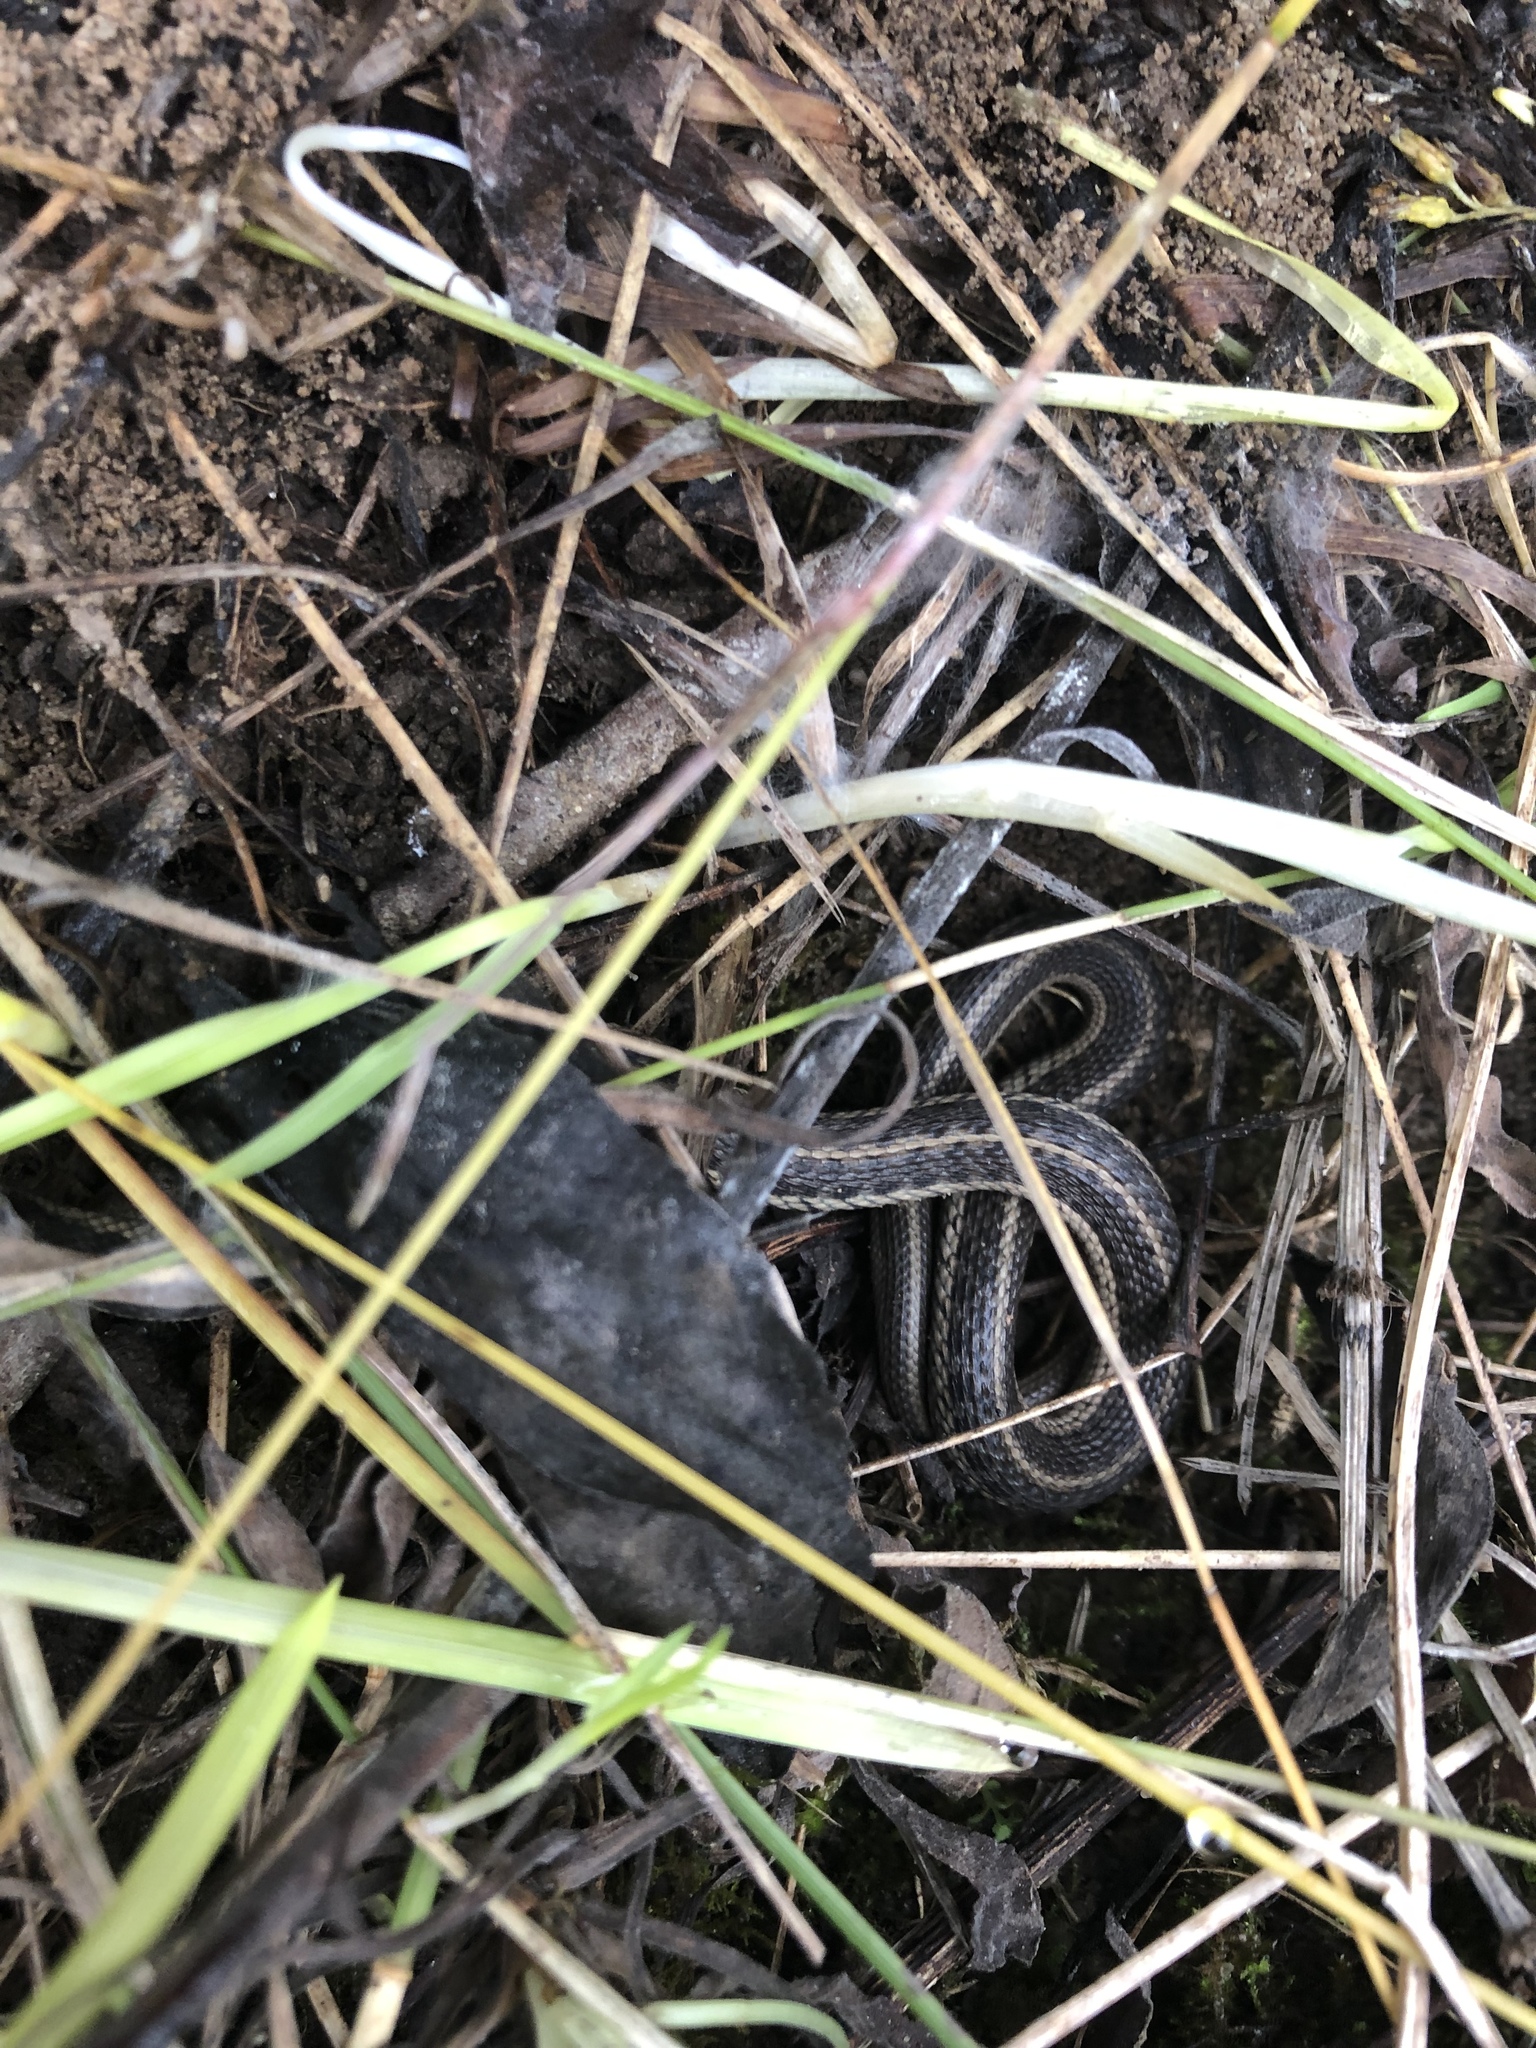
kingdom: Animalia
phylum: Chordata
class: Squamata
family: Colubridae
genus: Thamnophis
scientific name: Thamnophis sirtalis
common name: Common garter snake
